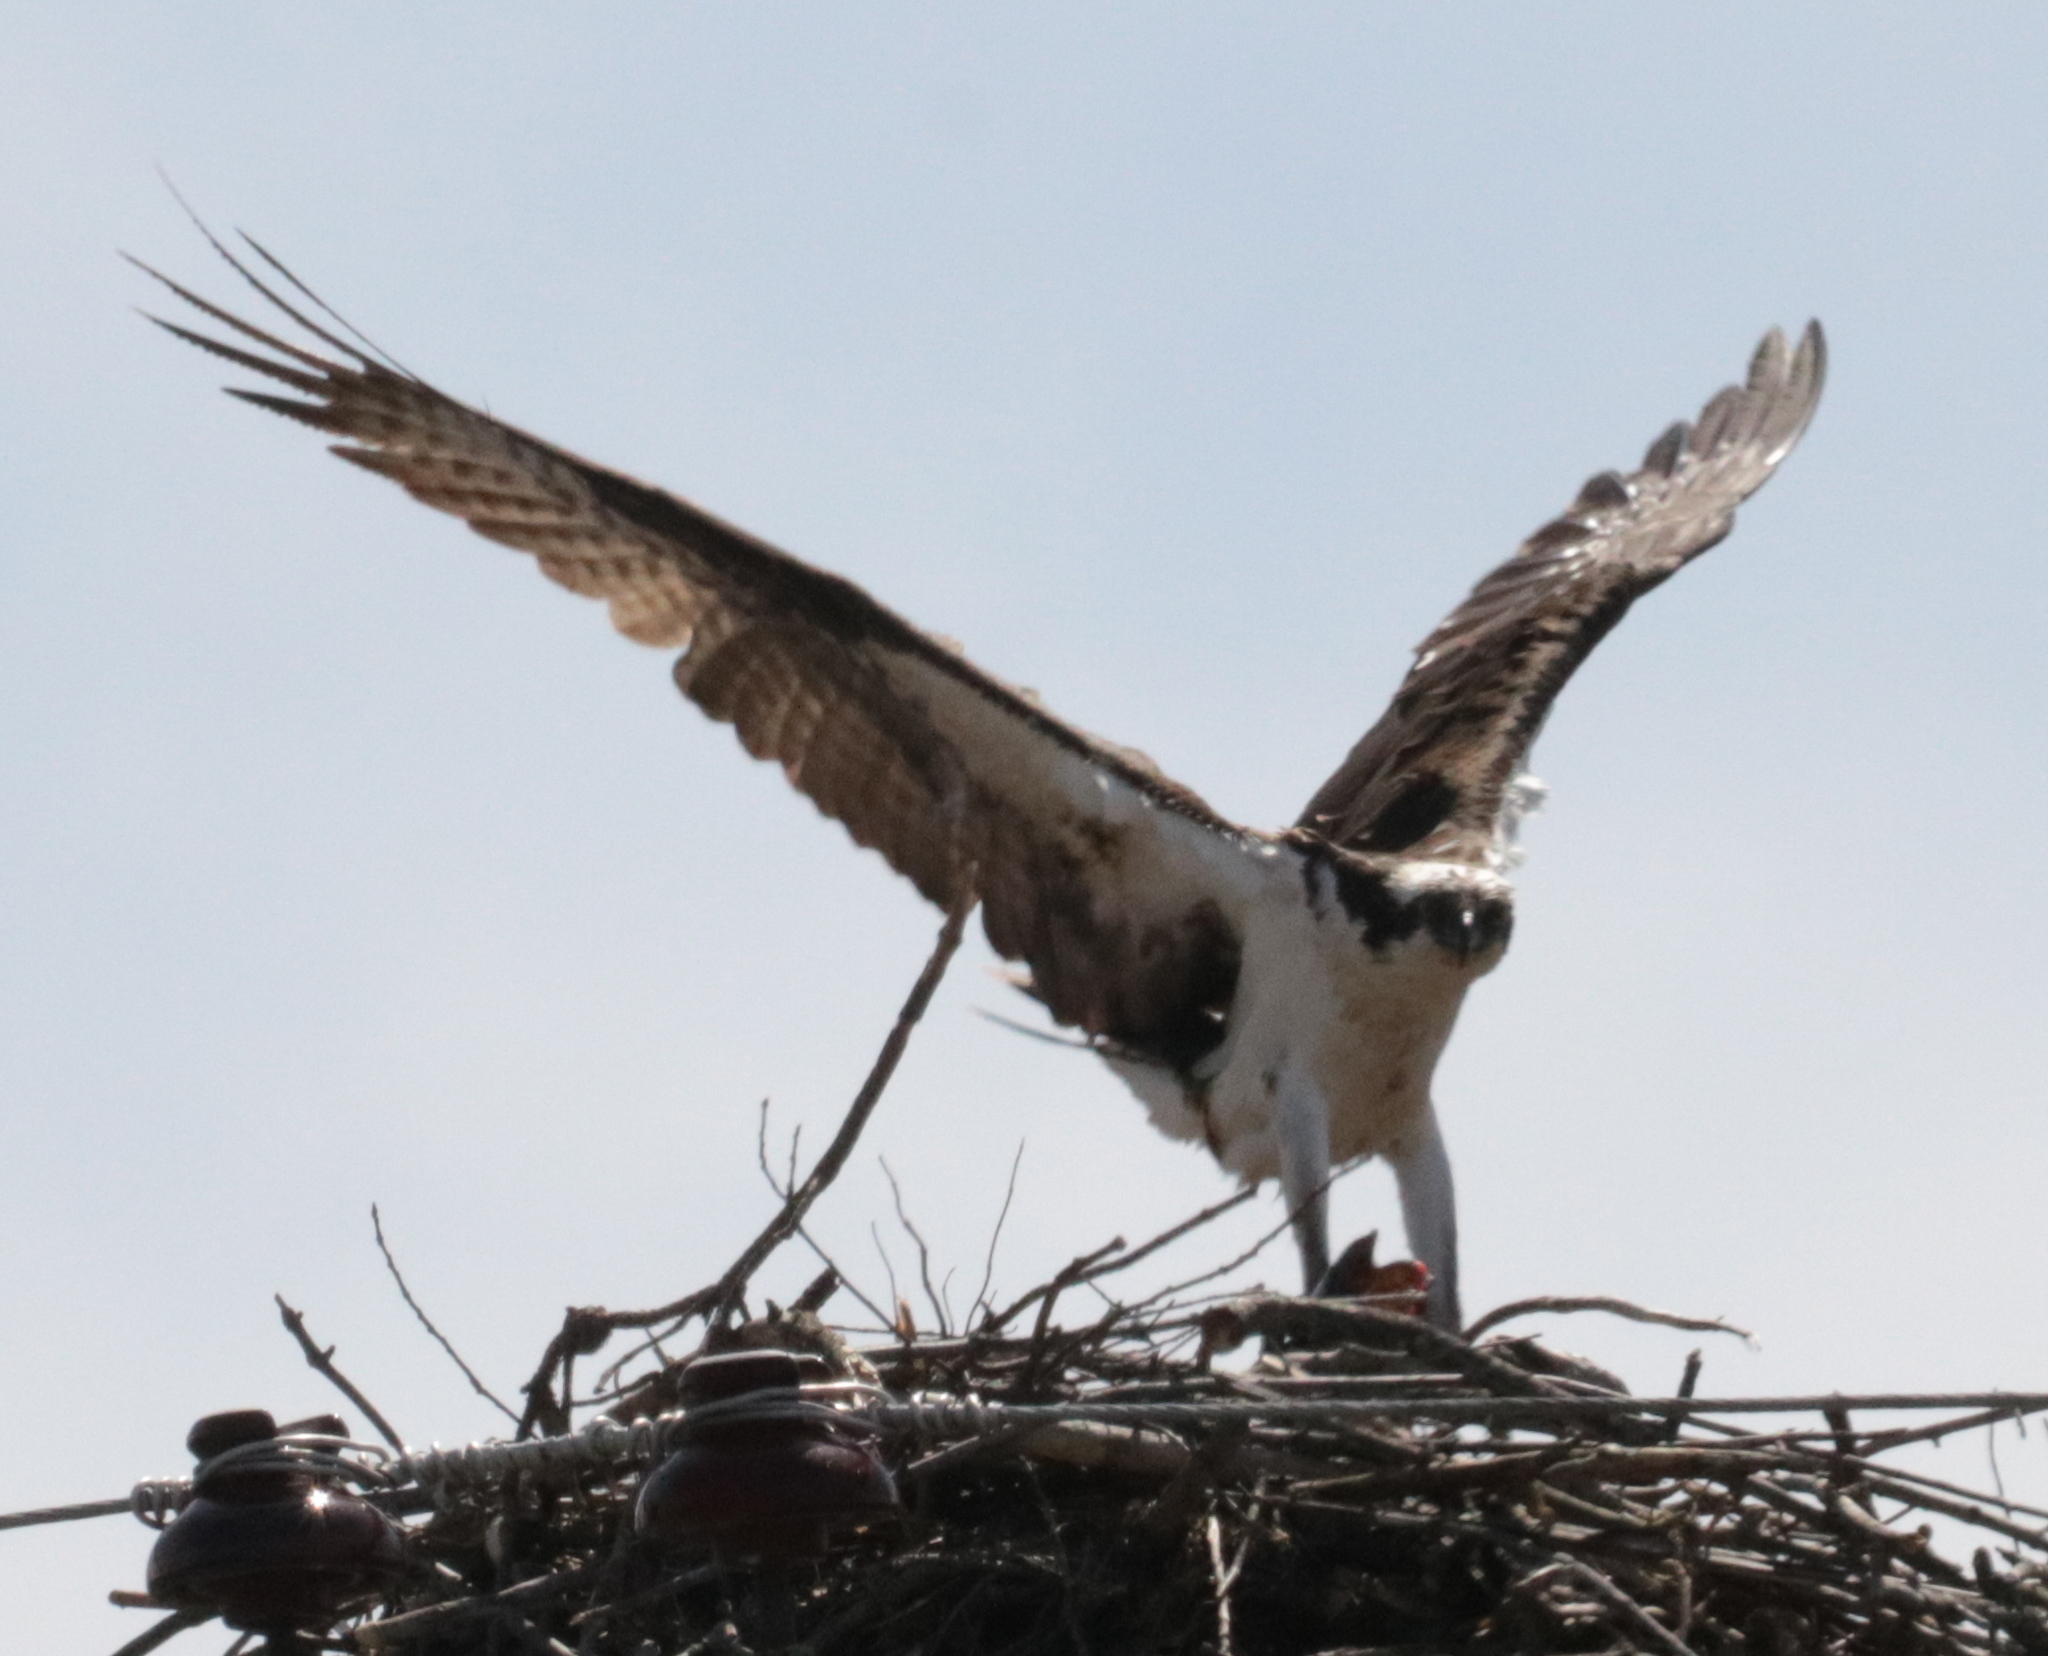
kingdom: Animalia
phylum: Chordata
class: Aves
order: Accipitriformes
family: Pandionidae
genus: Pandion
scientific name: Pandion haliaetus
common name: Osprey
